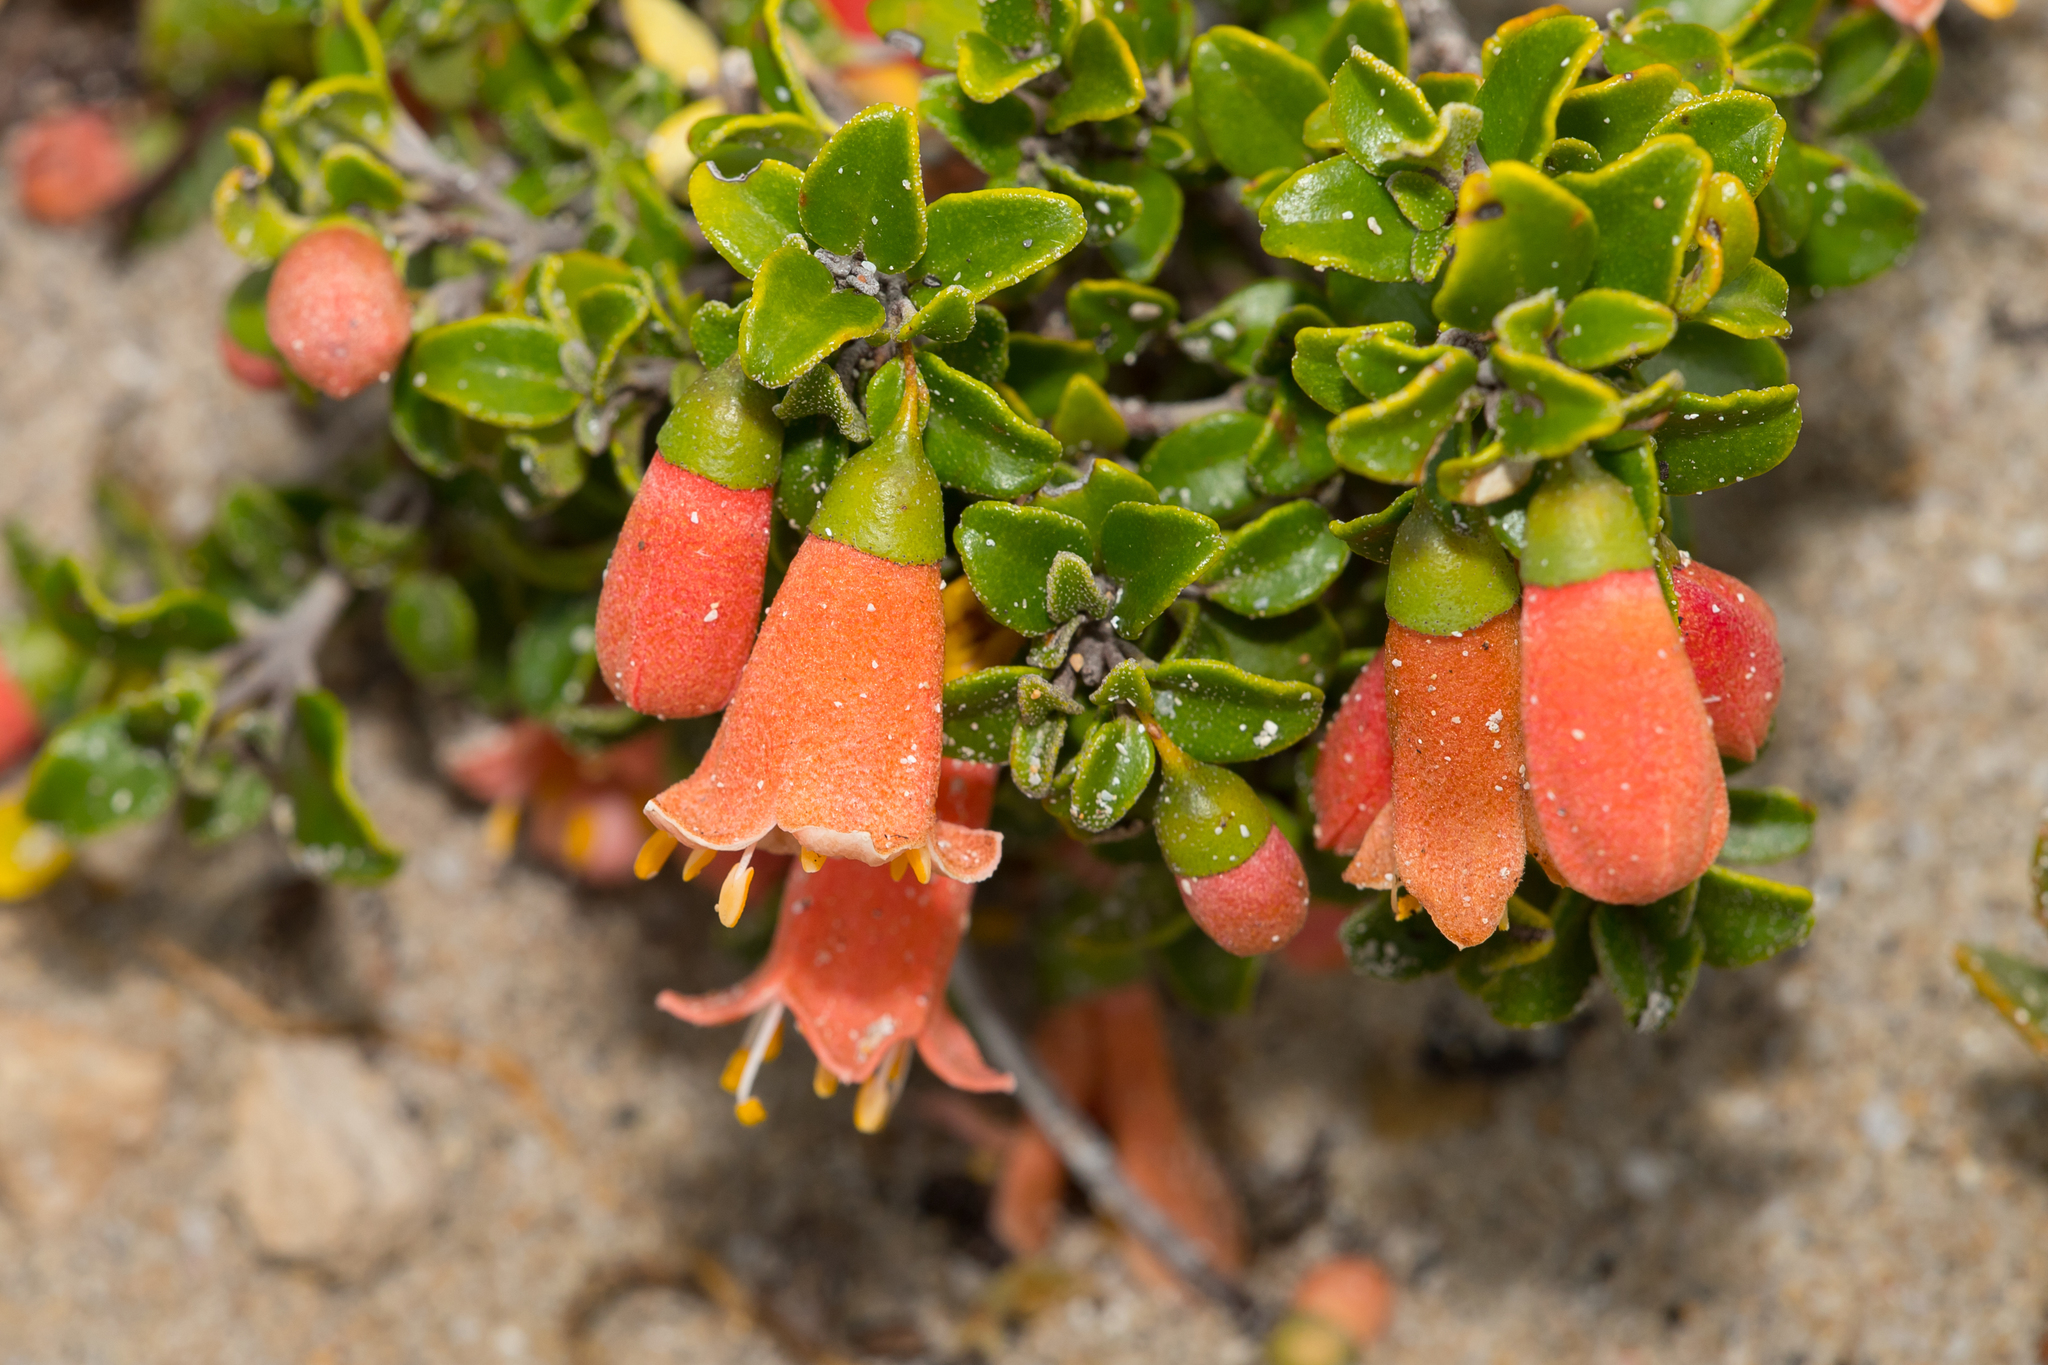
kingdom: Plantae
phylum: Tracheophyta
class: Magnoliopsida
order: Sapindales
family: Rutaceae
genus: Correa
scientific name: Correa pulchella
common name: Salmon correa
